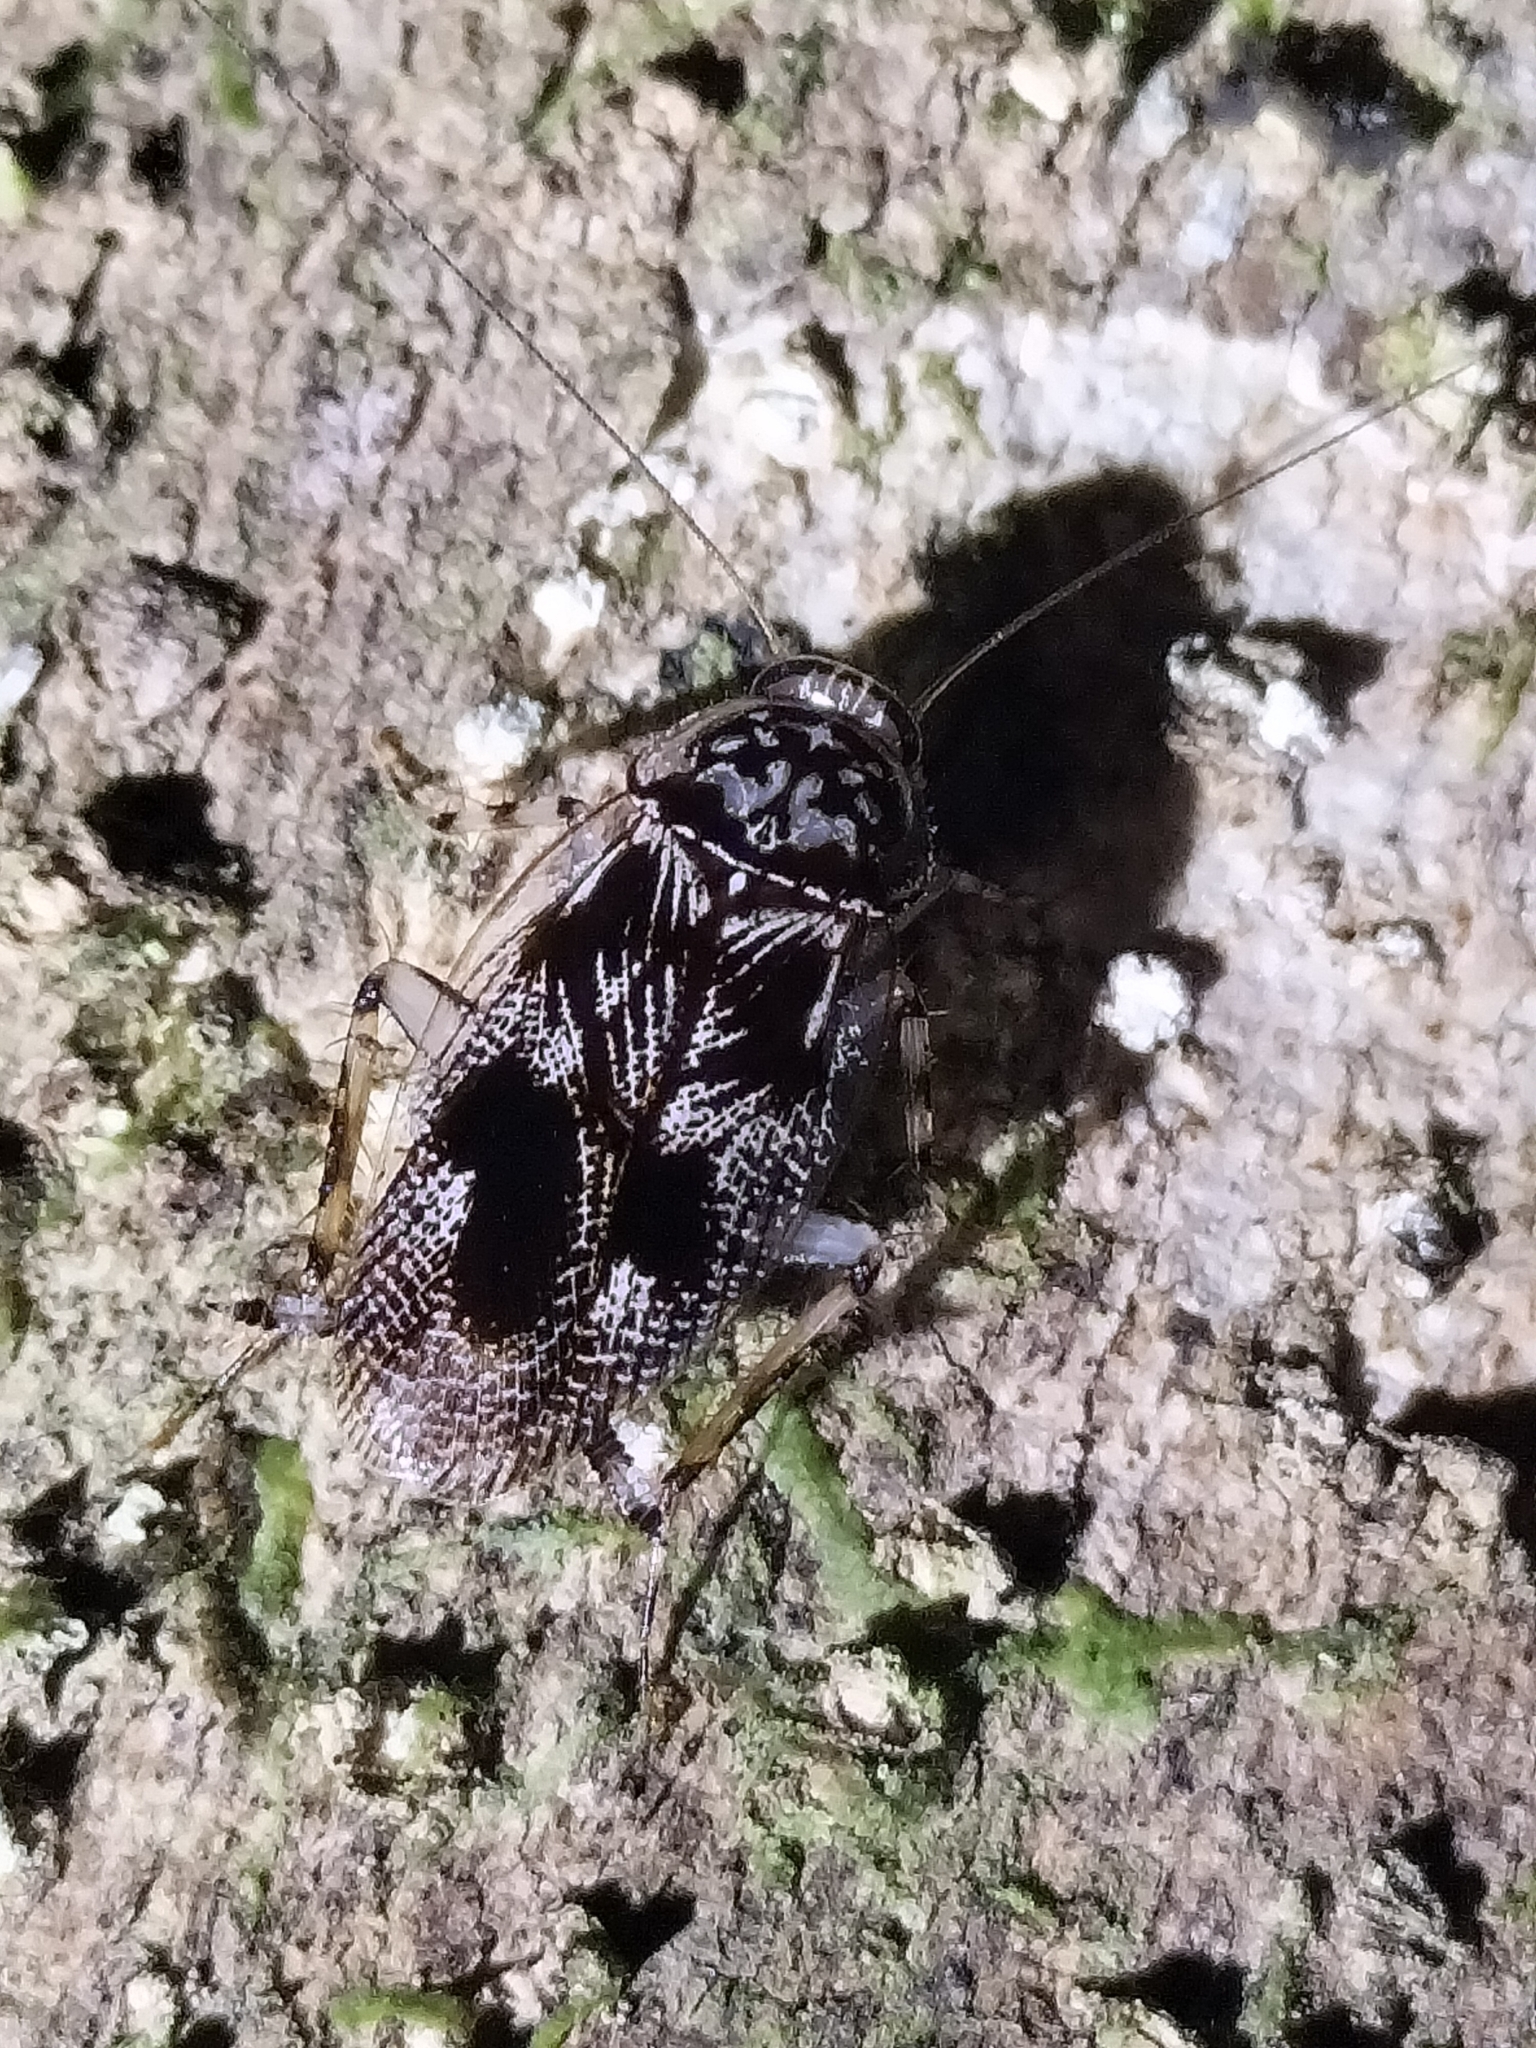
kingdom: Animalia
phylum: Arthropoda
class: Insecta
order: Blattodea
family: Ectobiidae
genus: Allacta
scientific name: Allacta australiensis
